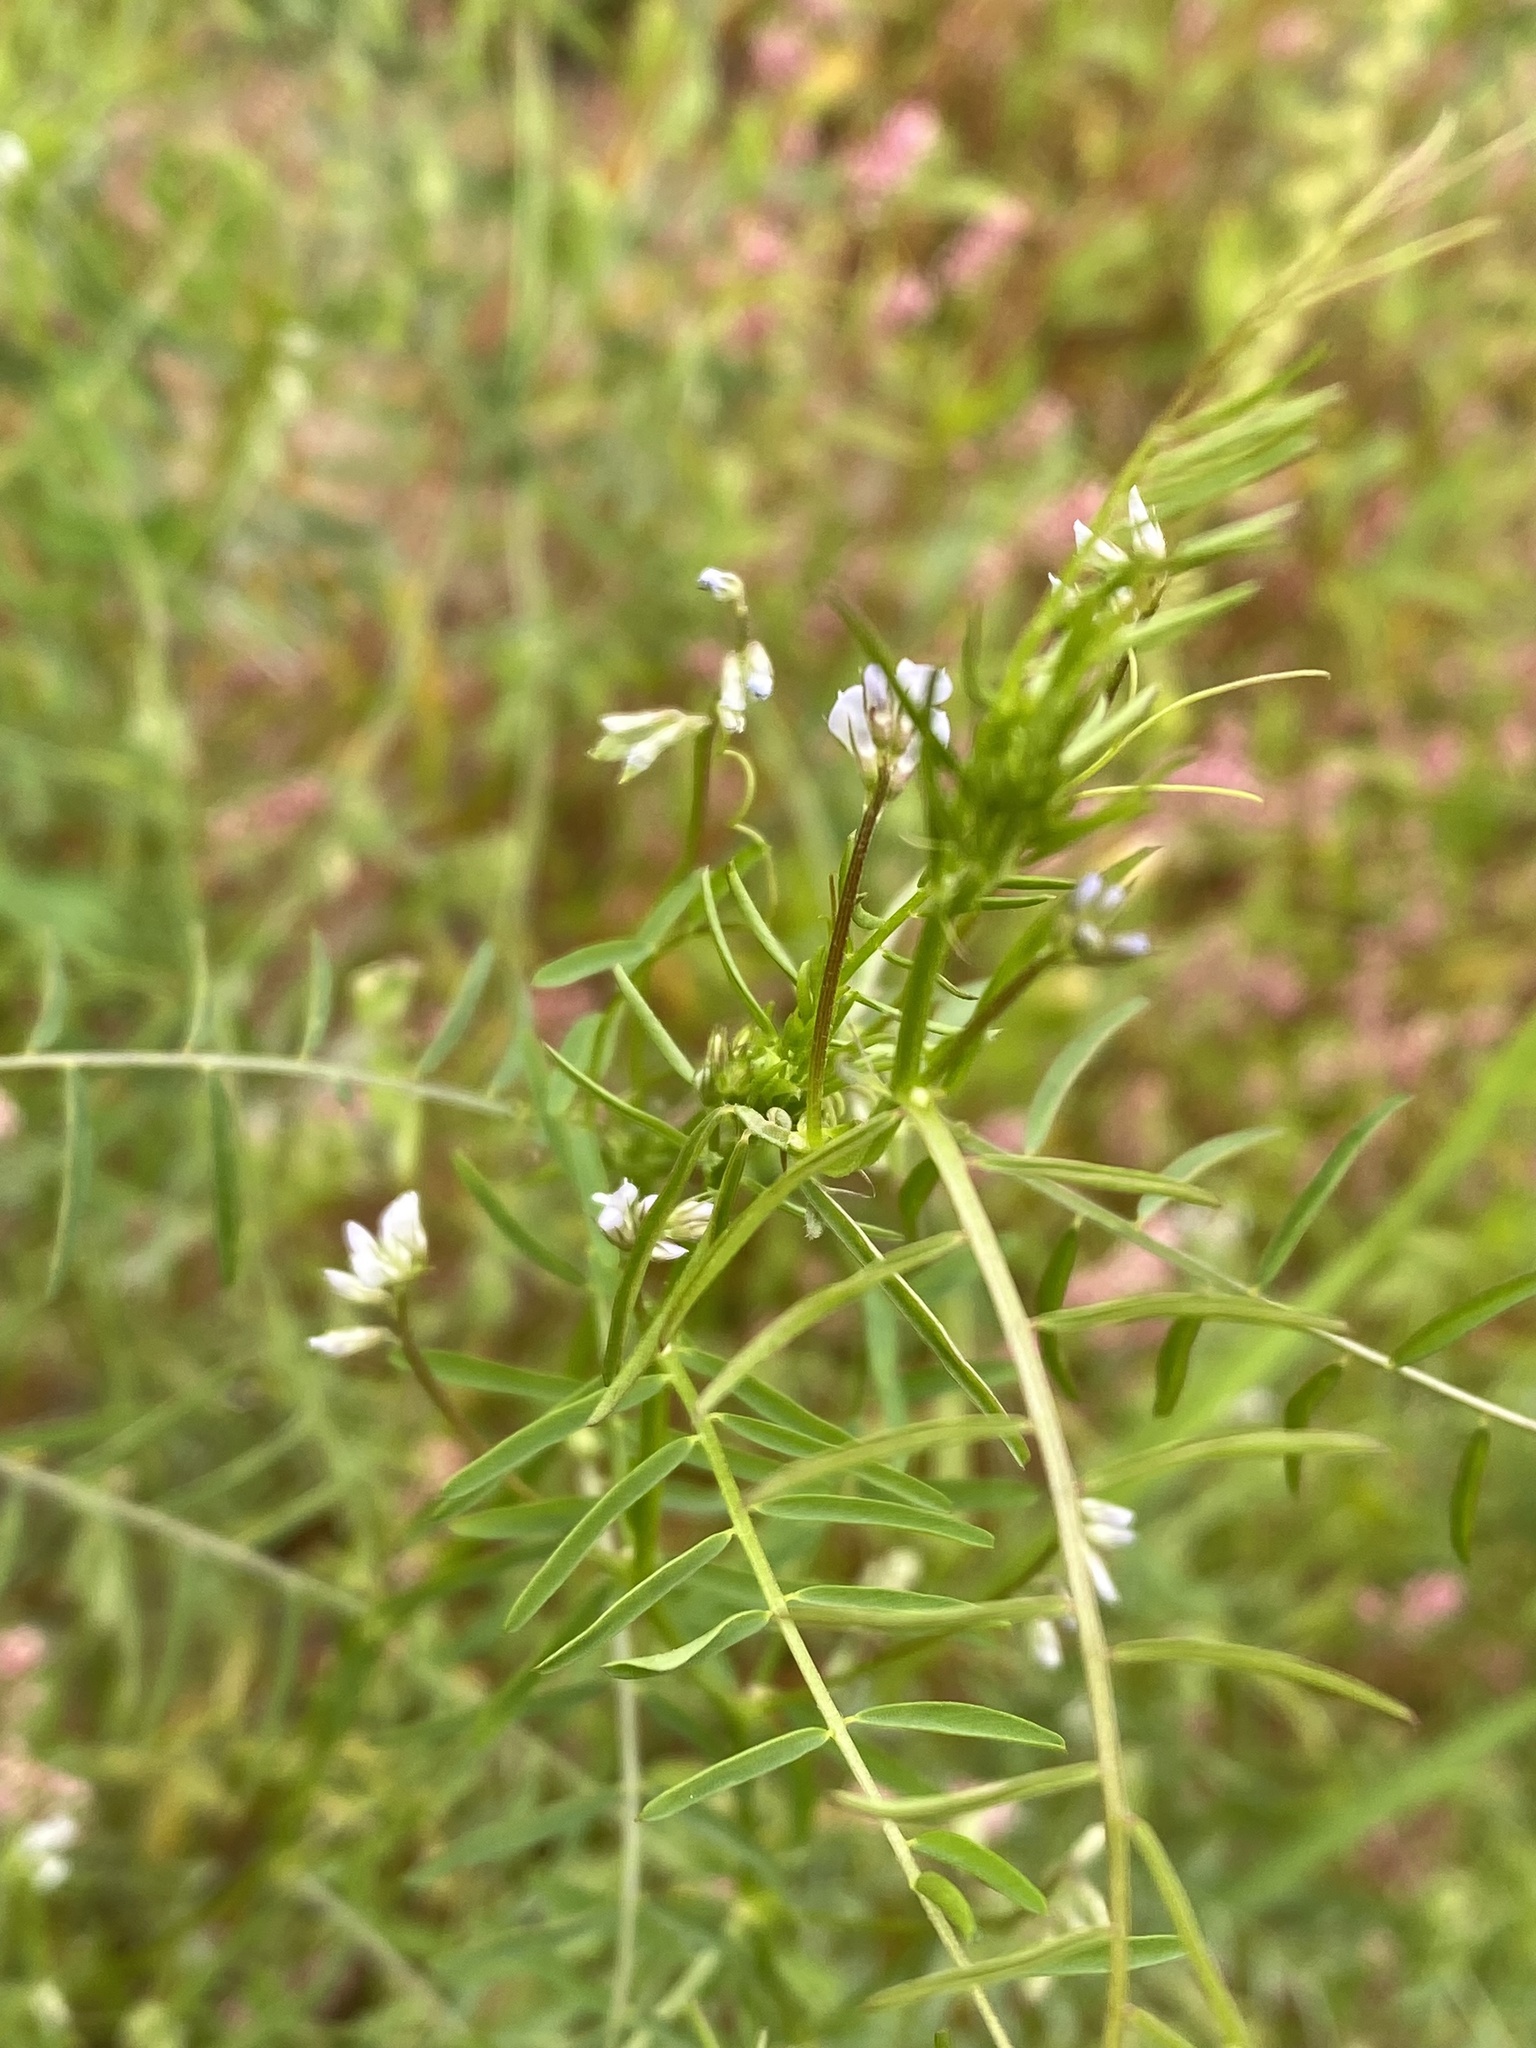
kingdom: Plantae
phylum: Tracheophyta
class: Magnoliopsida
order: Fabales
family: Fabaceae
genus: Vicia
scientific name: Vicia hirsuta
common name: Tiny vetch
